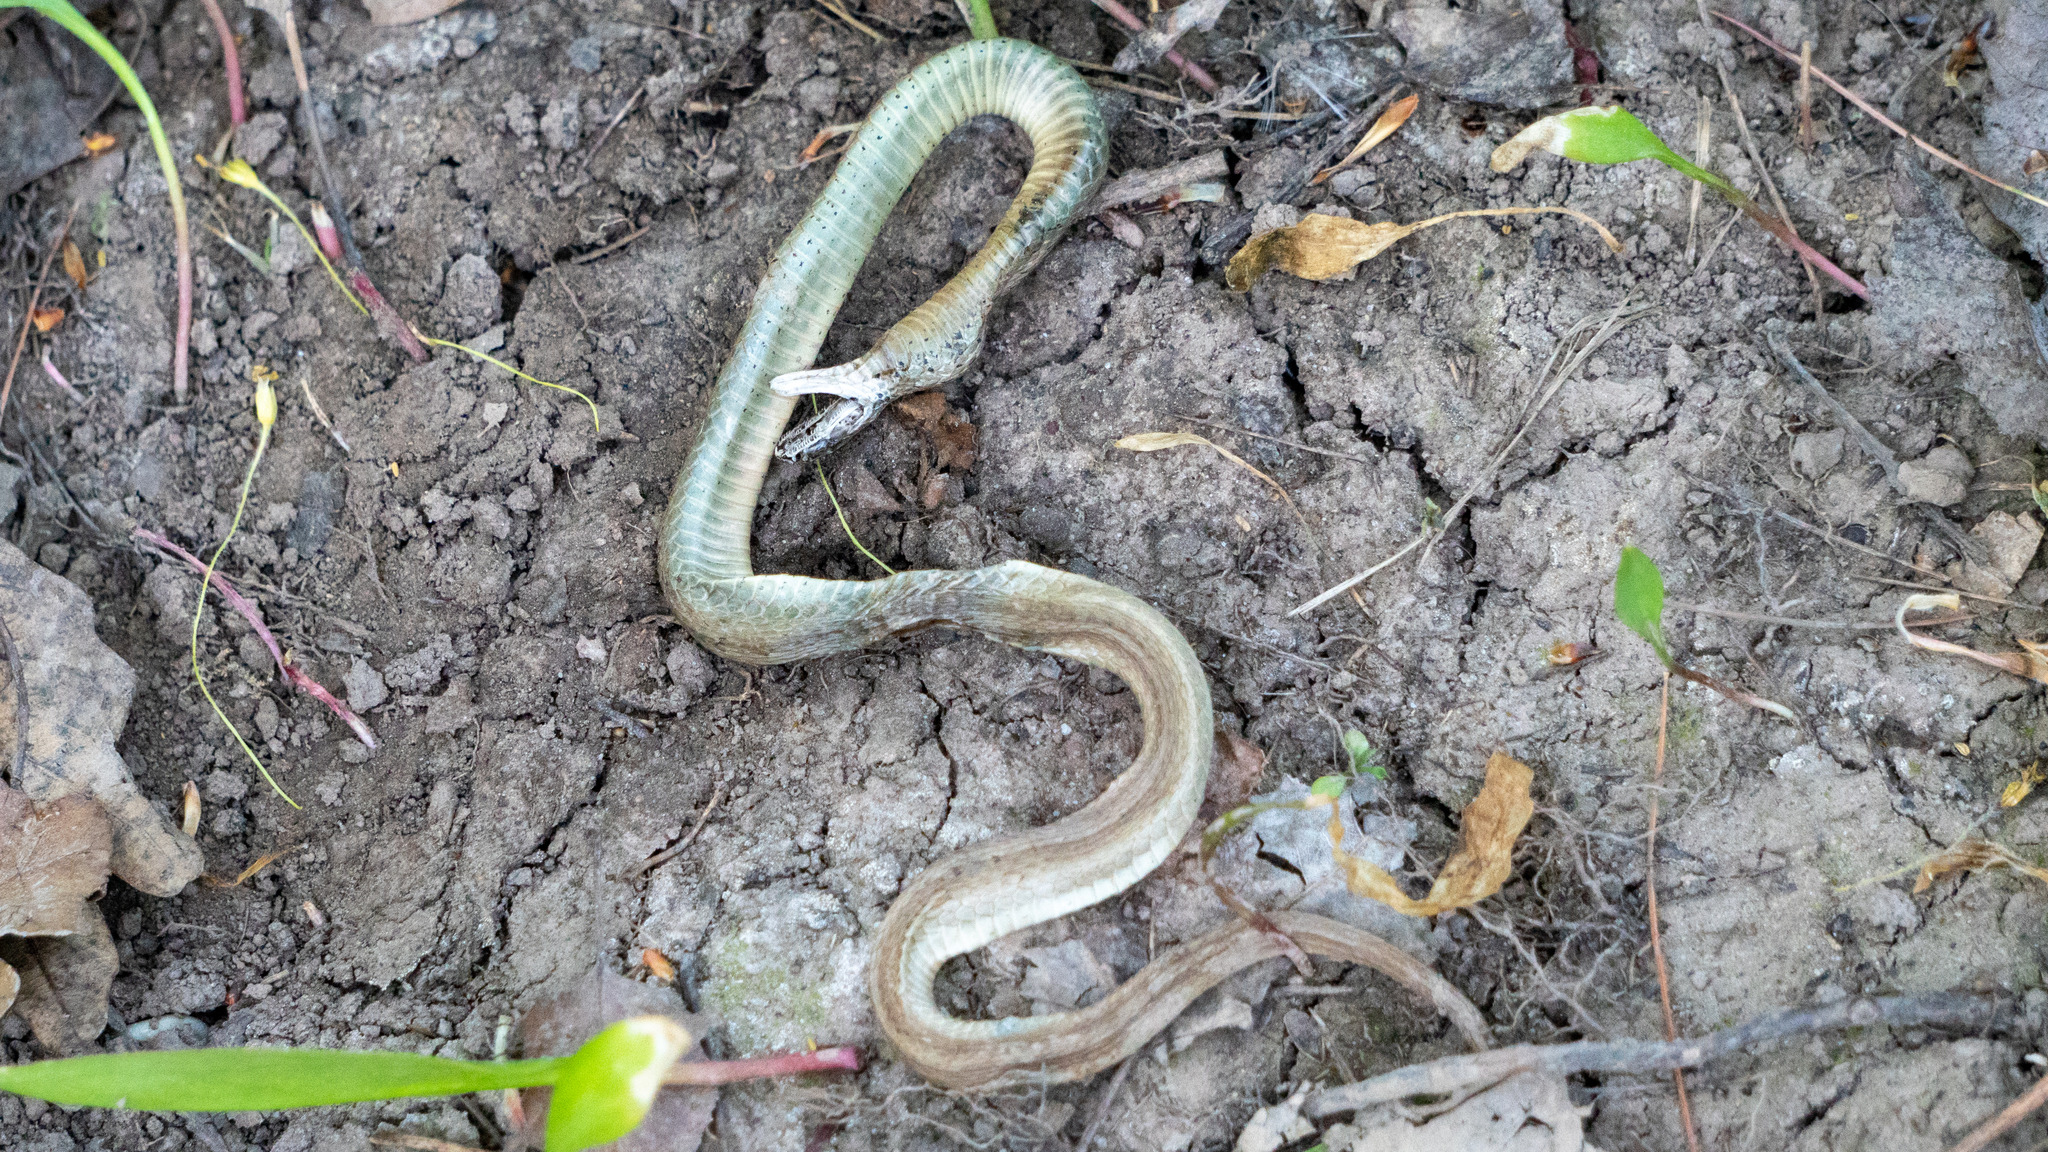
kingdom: Animalia
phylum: Chordata
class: Squamata
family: Colubridae
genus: Storeria
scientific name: Storeria dekayi
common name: (dekay’s) brown snake
